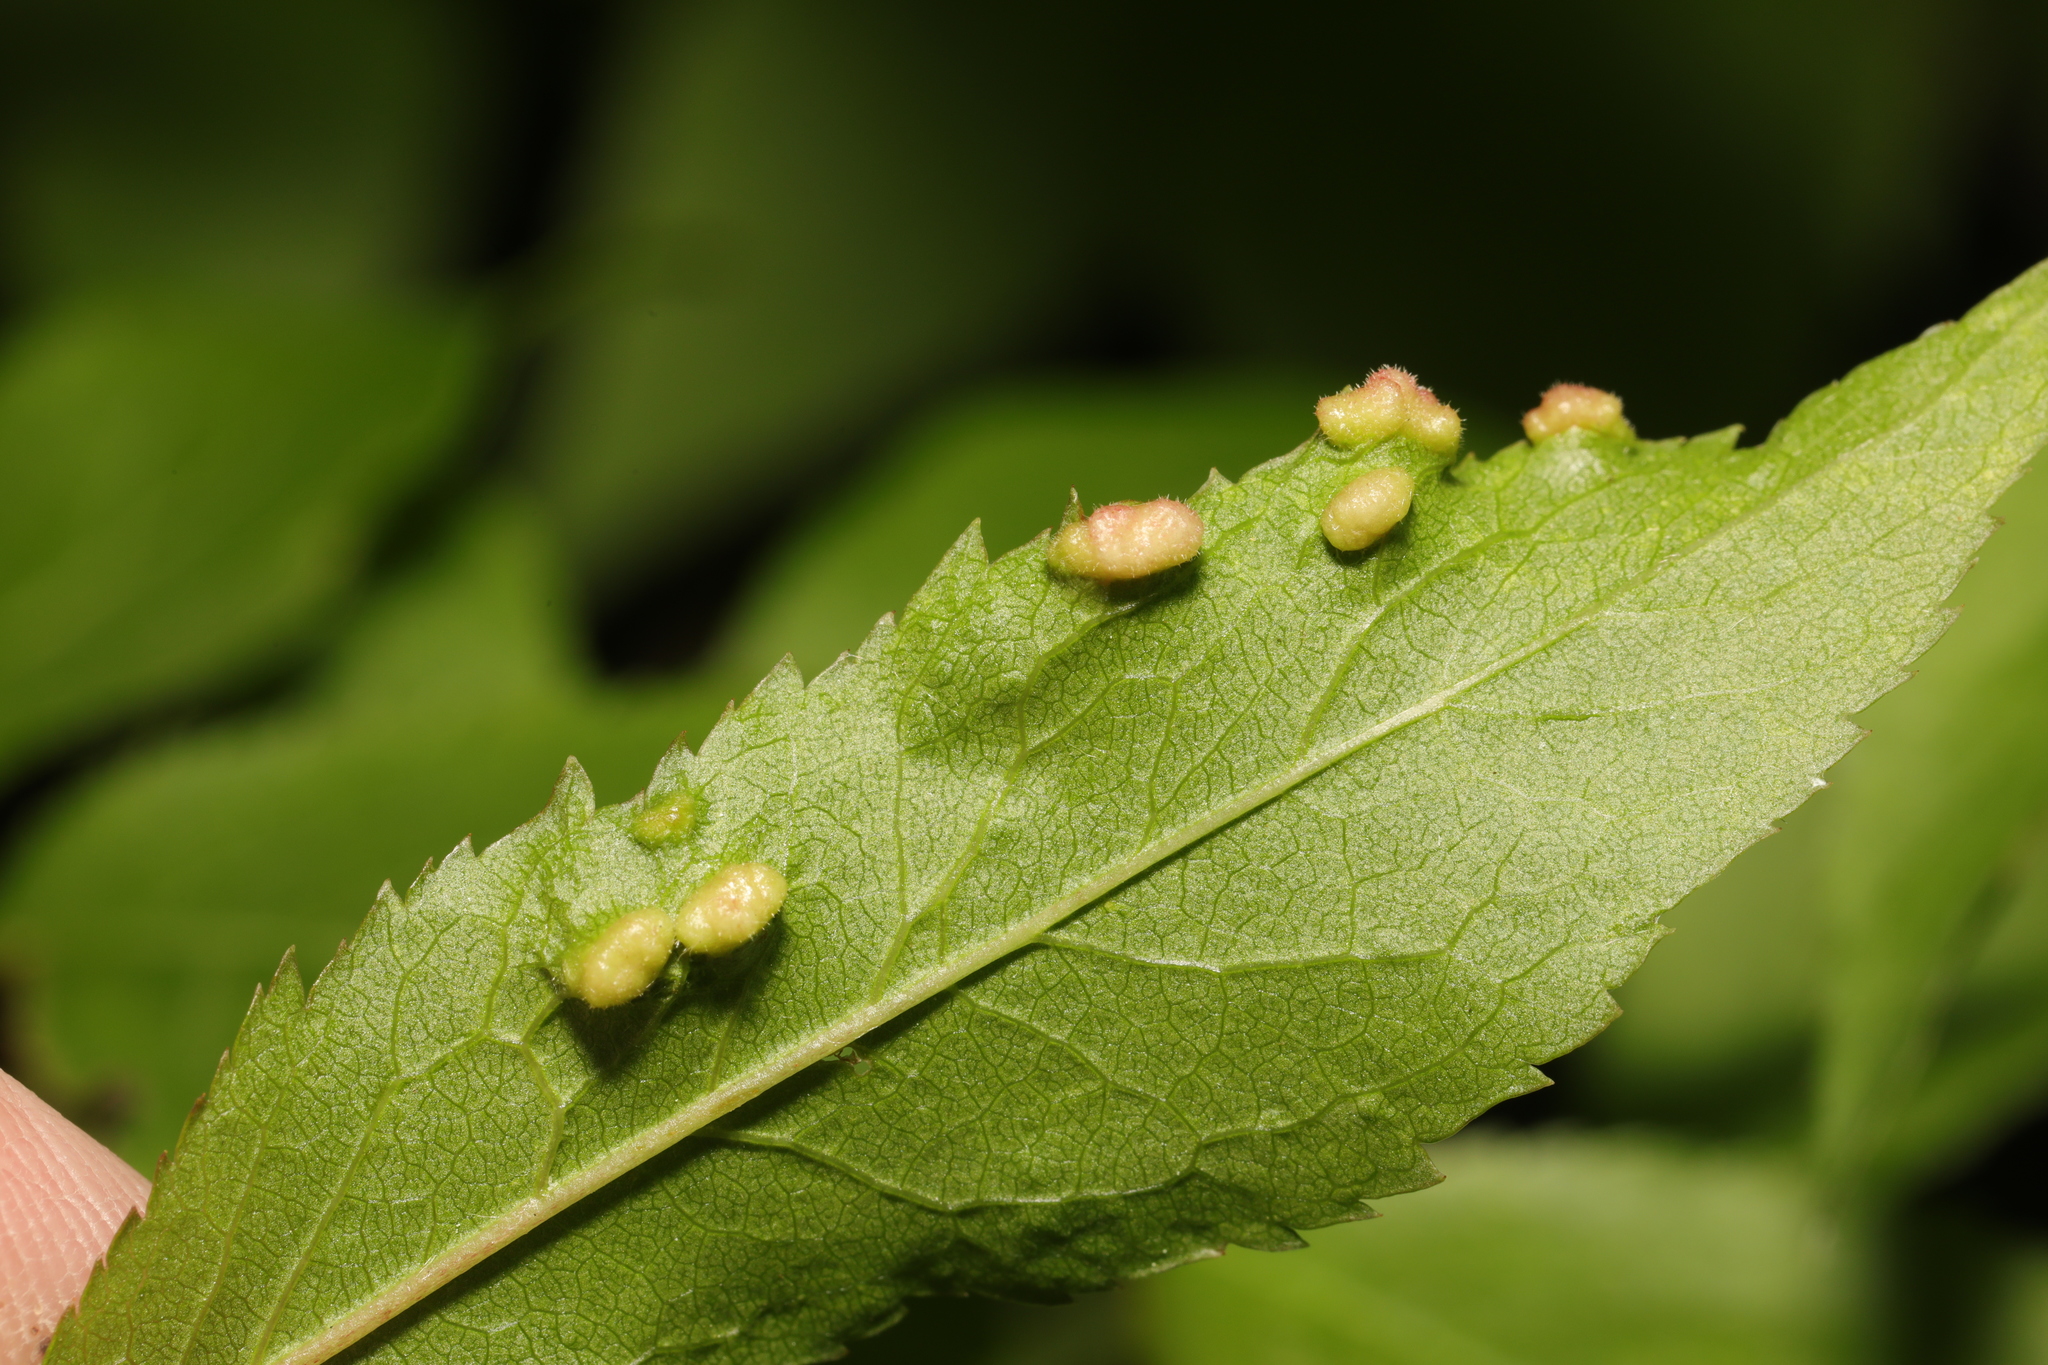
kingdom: Animalia
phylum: Arthropoda
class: Arachnida
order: Trombidiformes
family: Eriophyidae
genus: Eriophyes
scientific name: Eriophyes similis
